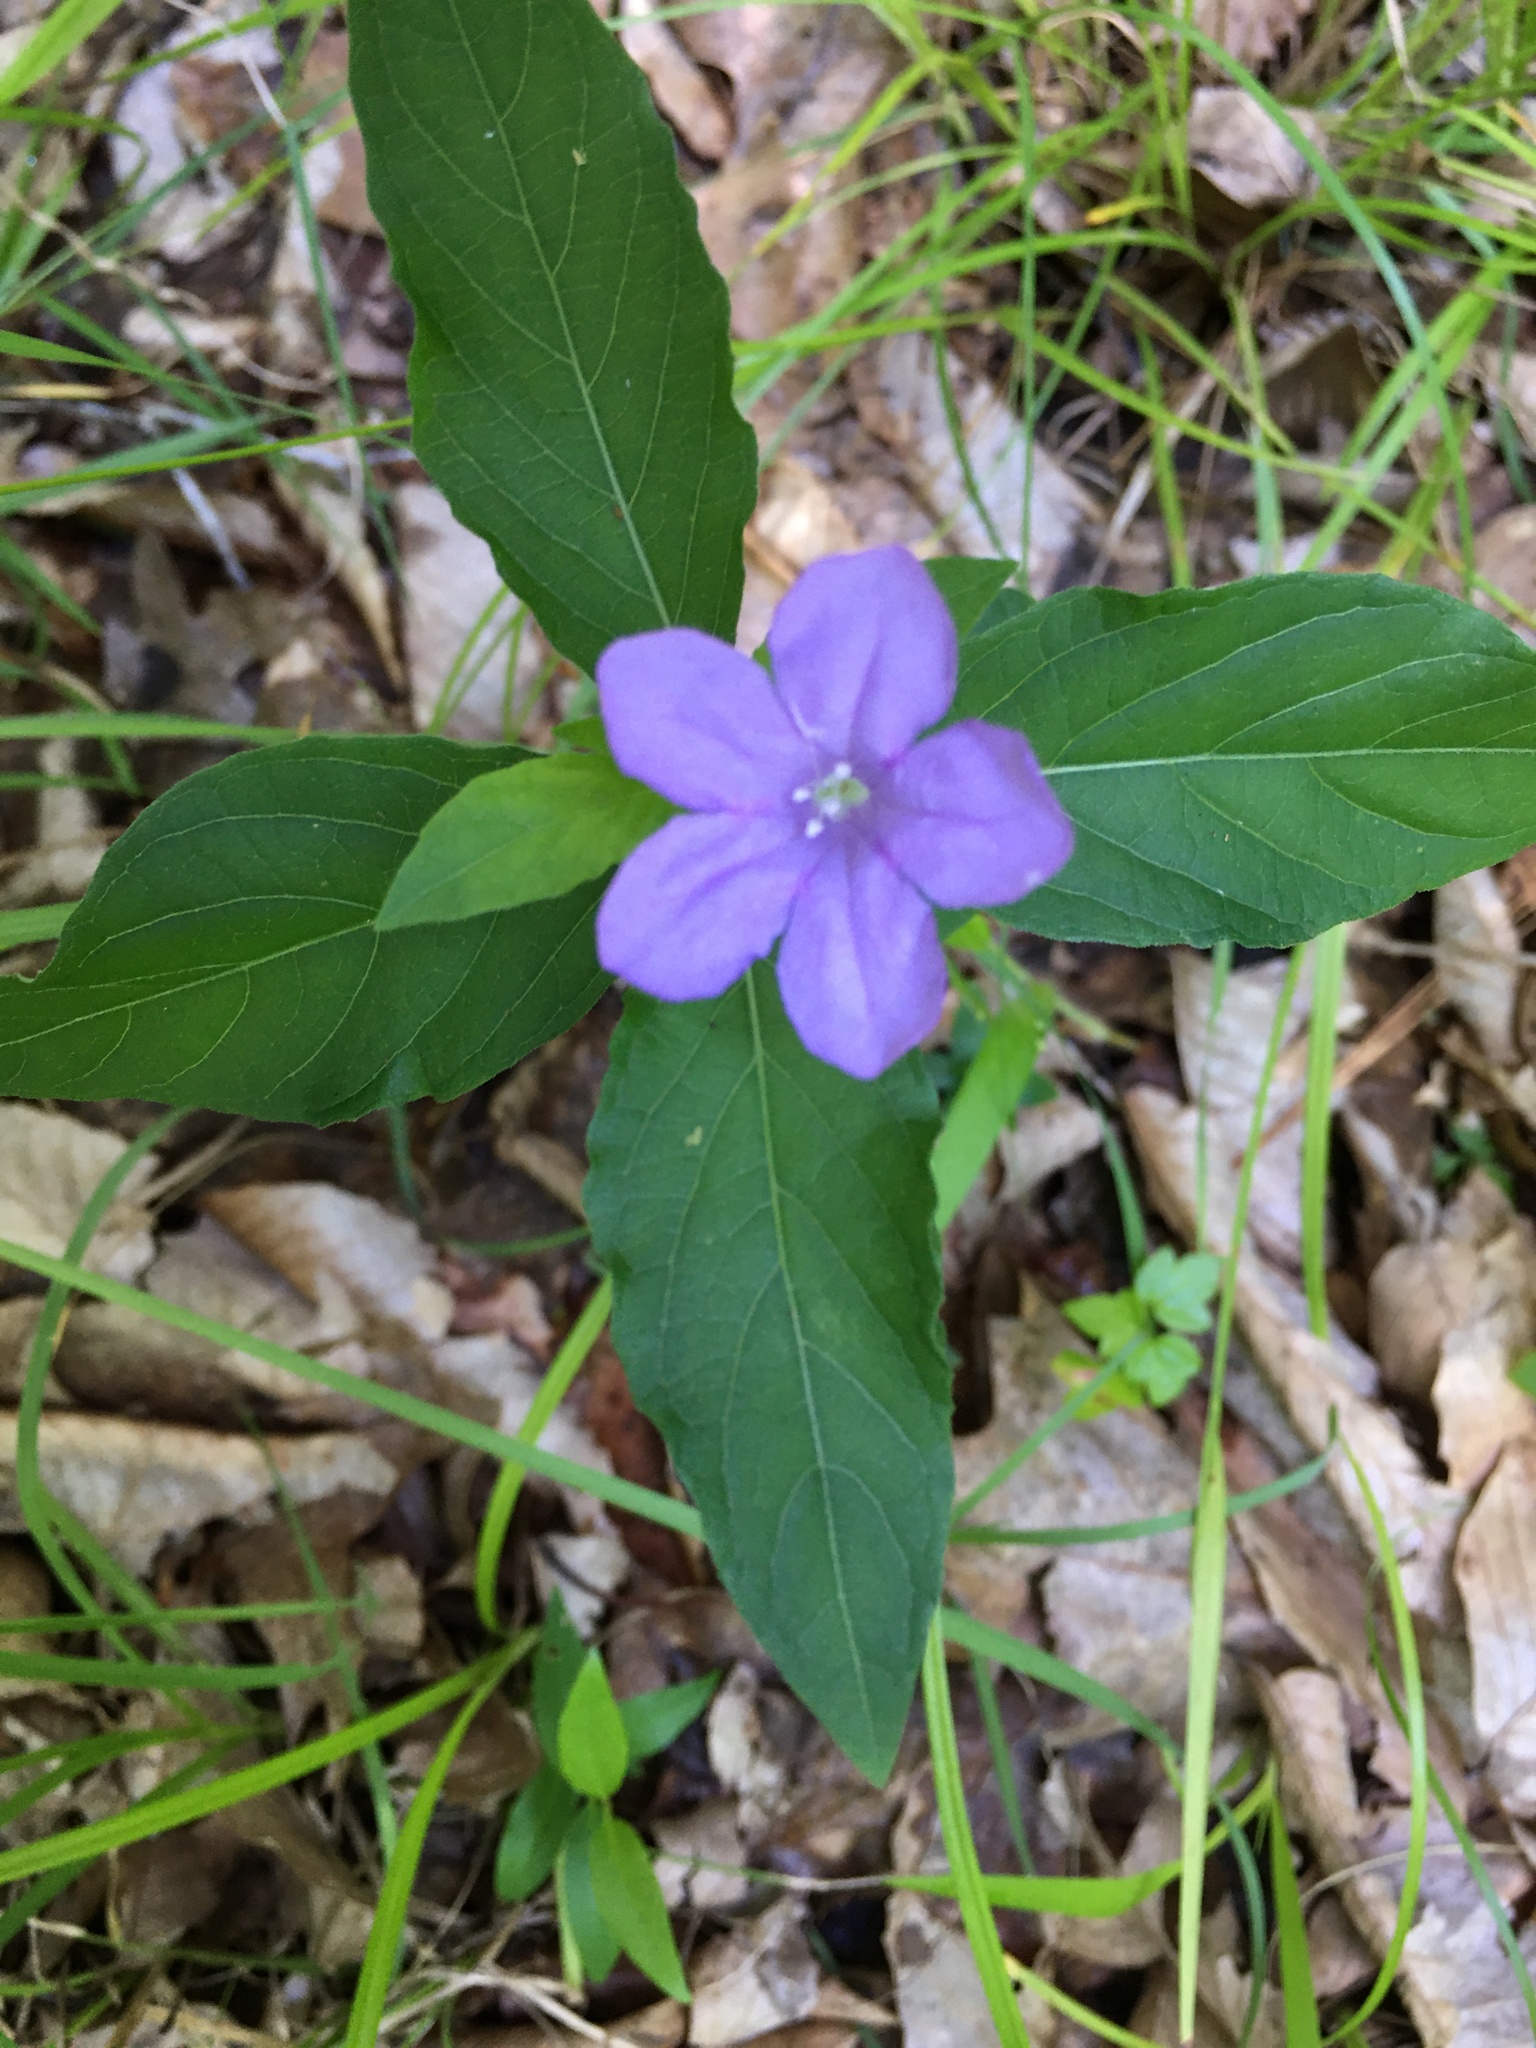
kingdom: Plantae
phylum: Tracheophyta
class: Magnoliopsida
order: Lamiales
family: Acanthaceae
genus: Ruellia
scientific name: Ruellia caroliniensis
